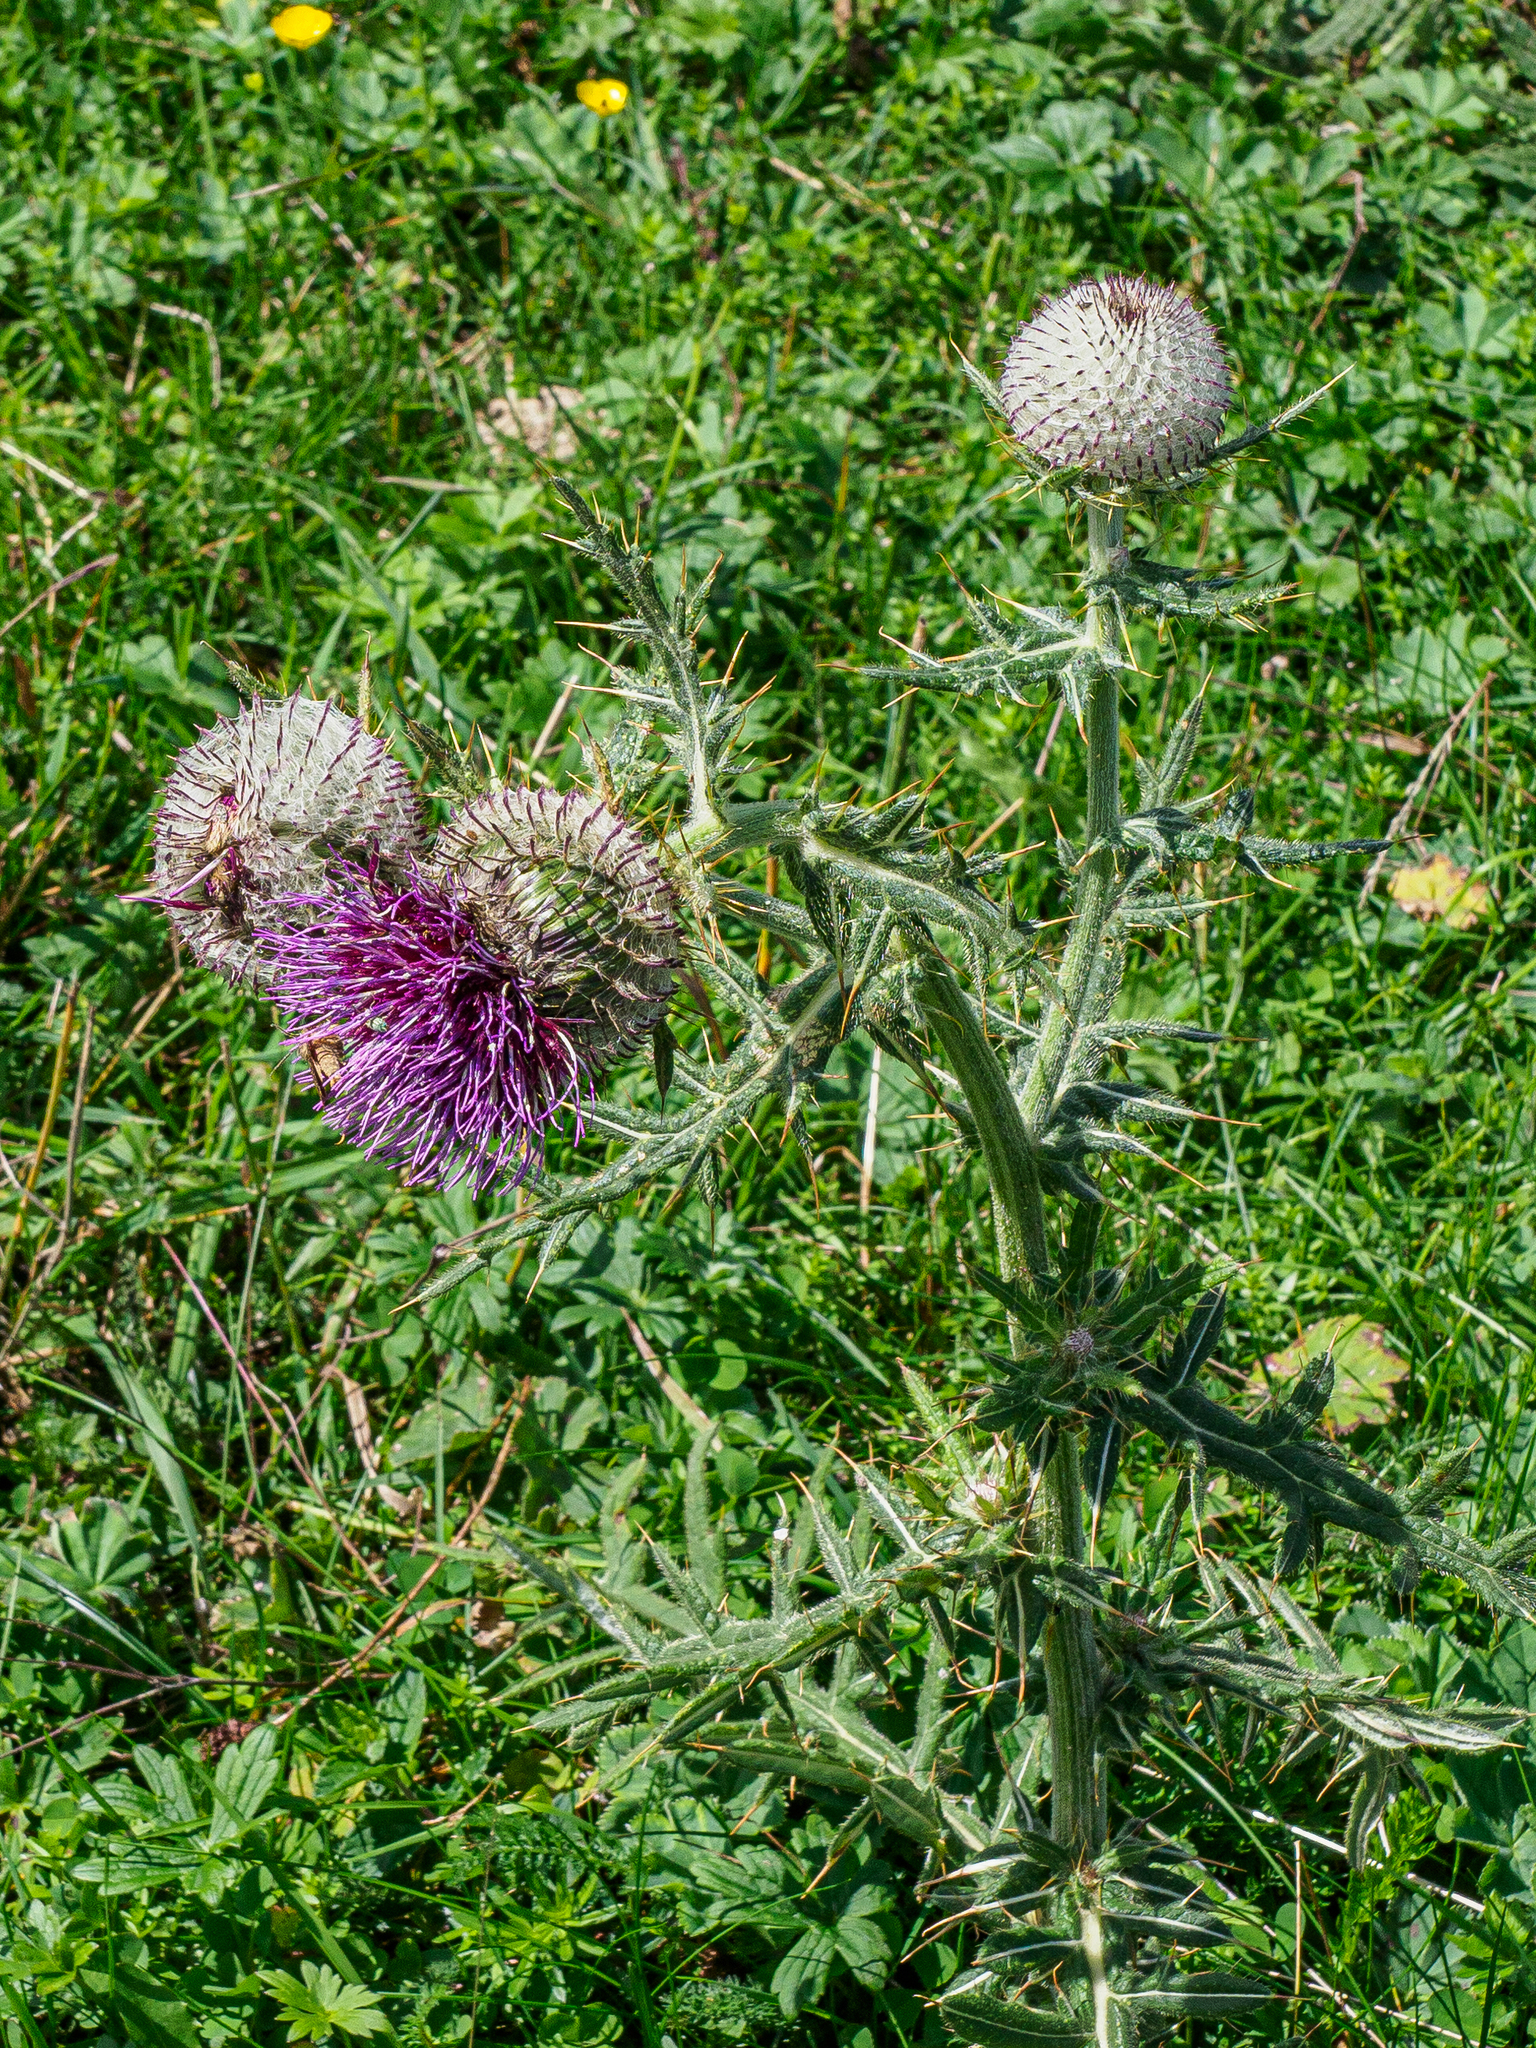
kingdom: Plantae
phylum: Tracheophyta
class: Magnoliopsida
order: Asterales
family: Asteraceae
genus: Lophiolepis
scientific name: Lophiolepis eriophora
